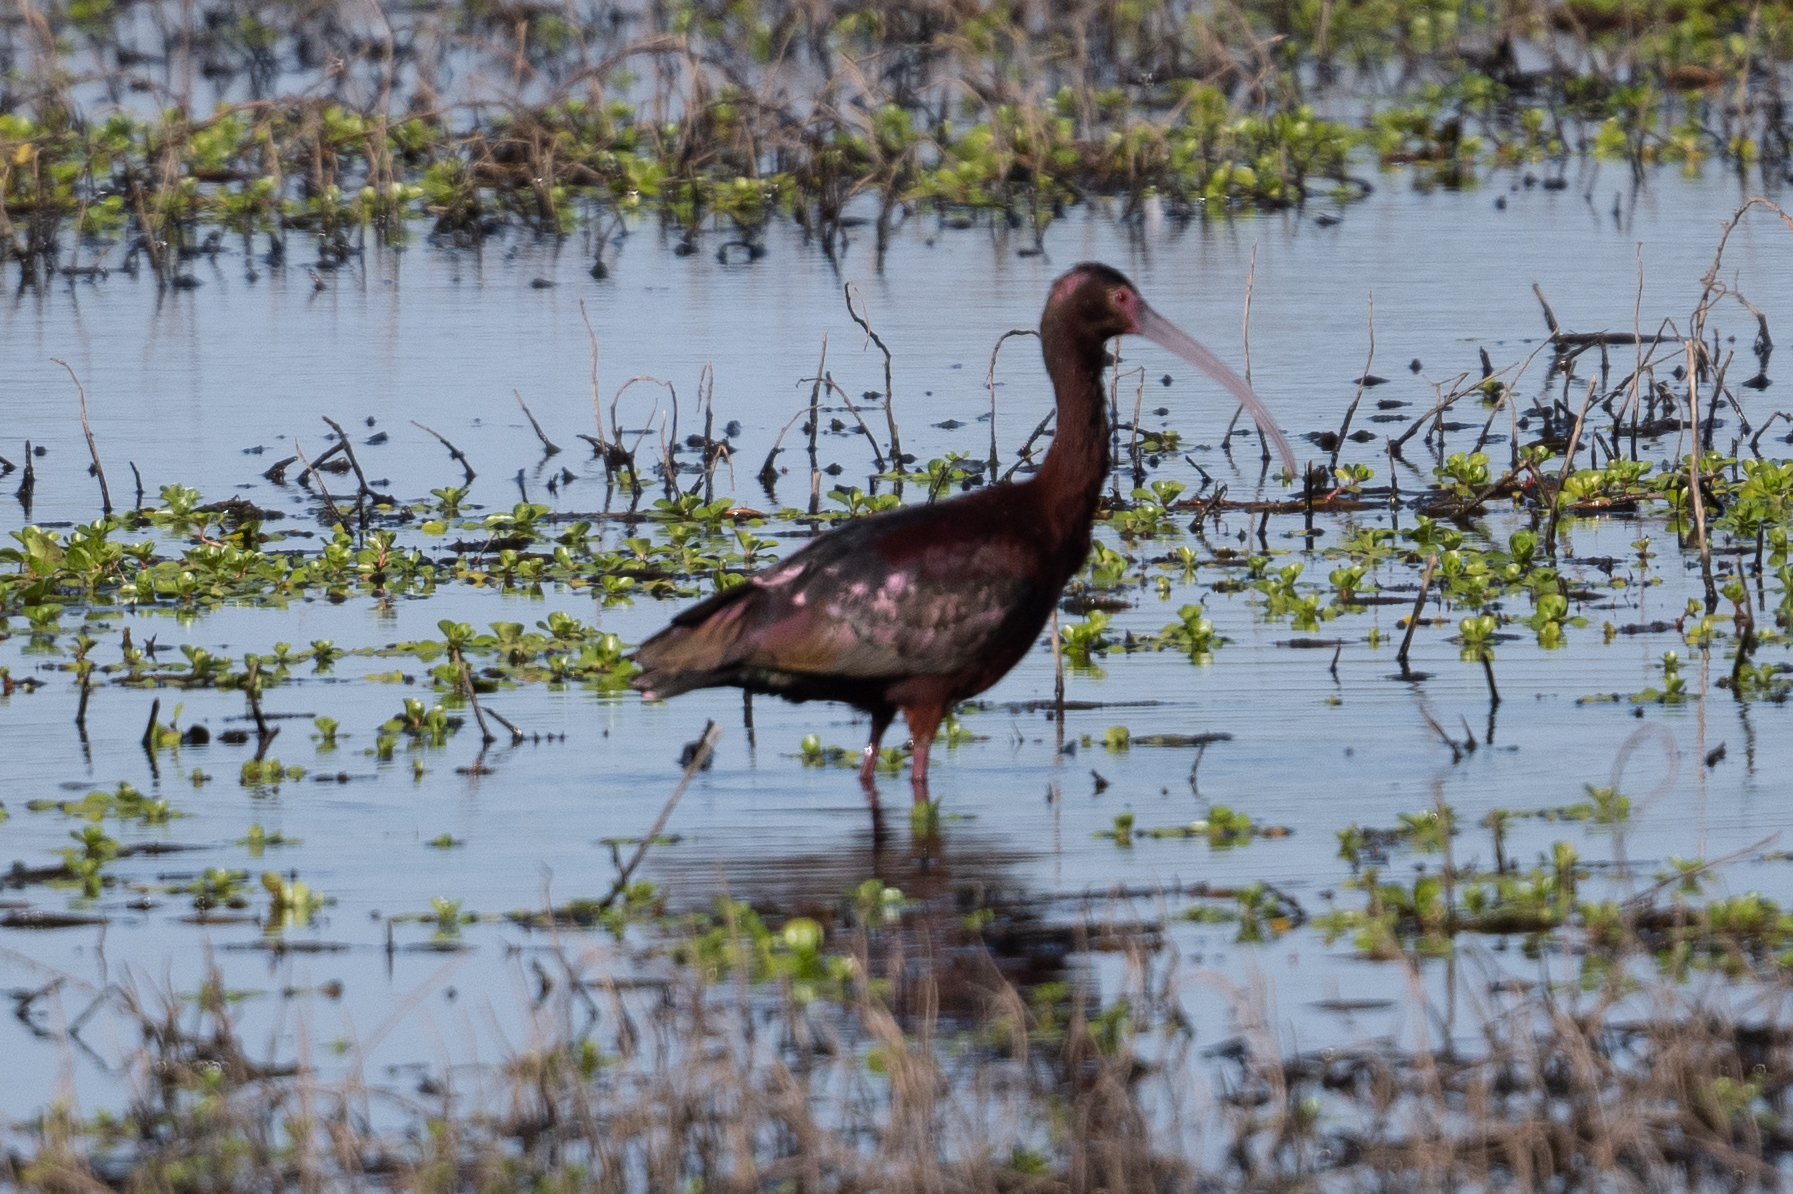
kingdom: Animalia
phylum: Chordata
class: Aves
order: Pelecaniformes
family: Threskiornithidae
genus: Plegadis
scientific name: Plegadis chihi
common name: White-faced ibis
